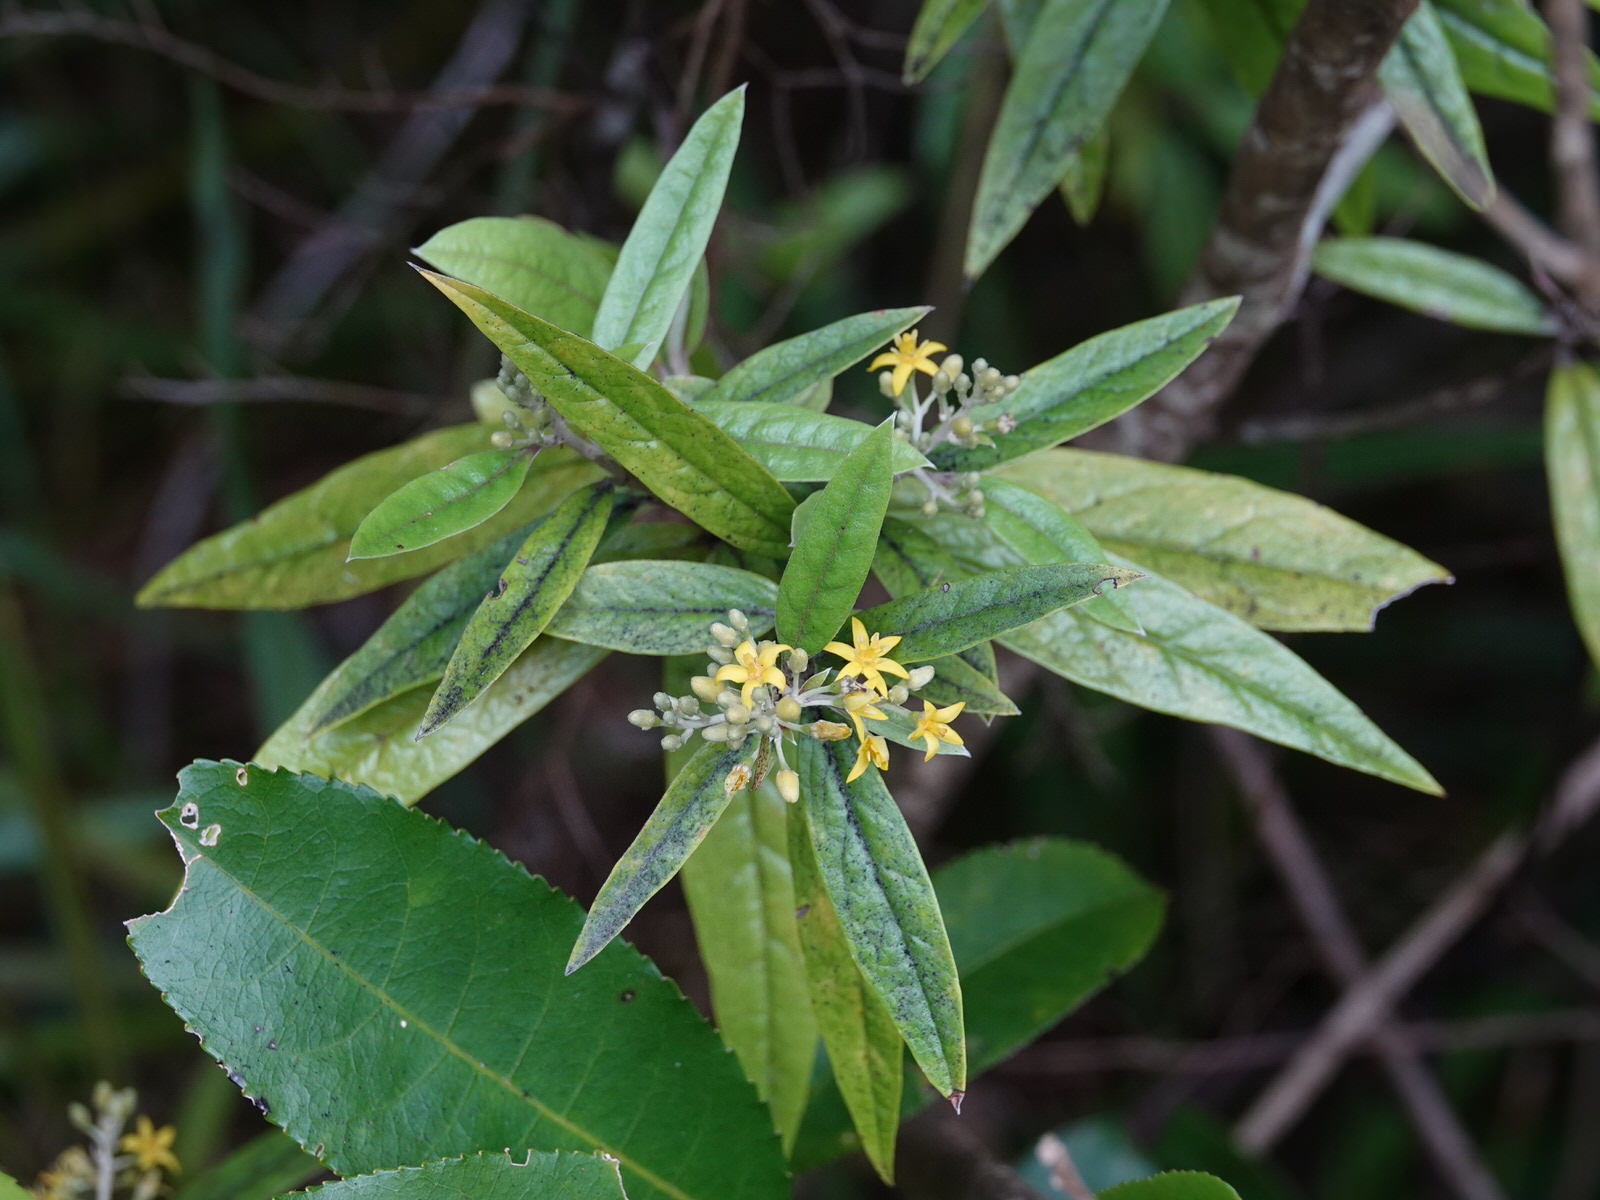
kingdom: Plantae
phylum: Tracheophyta
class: Magnoliopsida
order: Asterales
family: Argophyllaceae
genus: Corokia
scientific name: Corokia buddleioides
